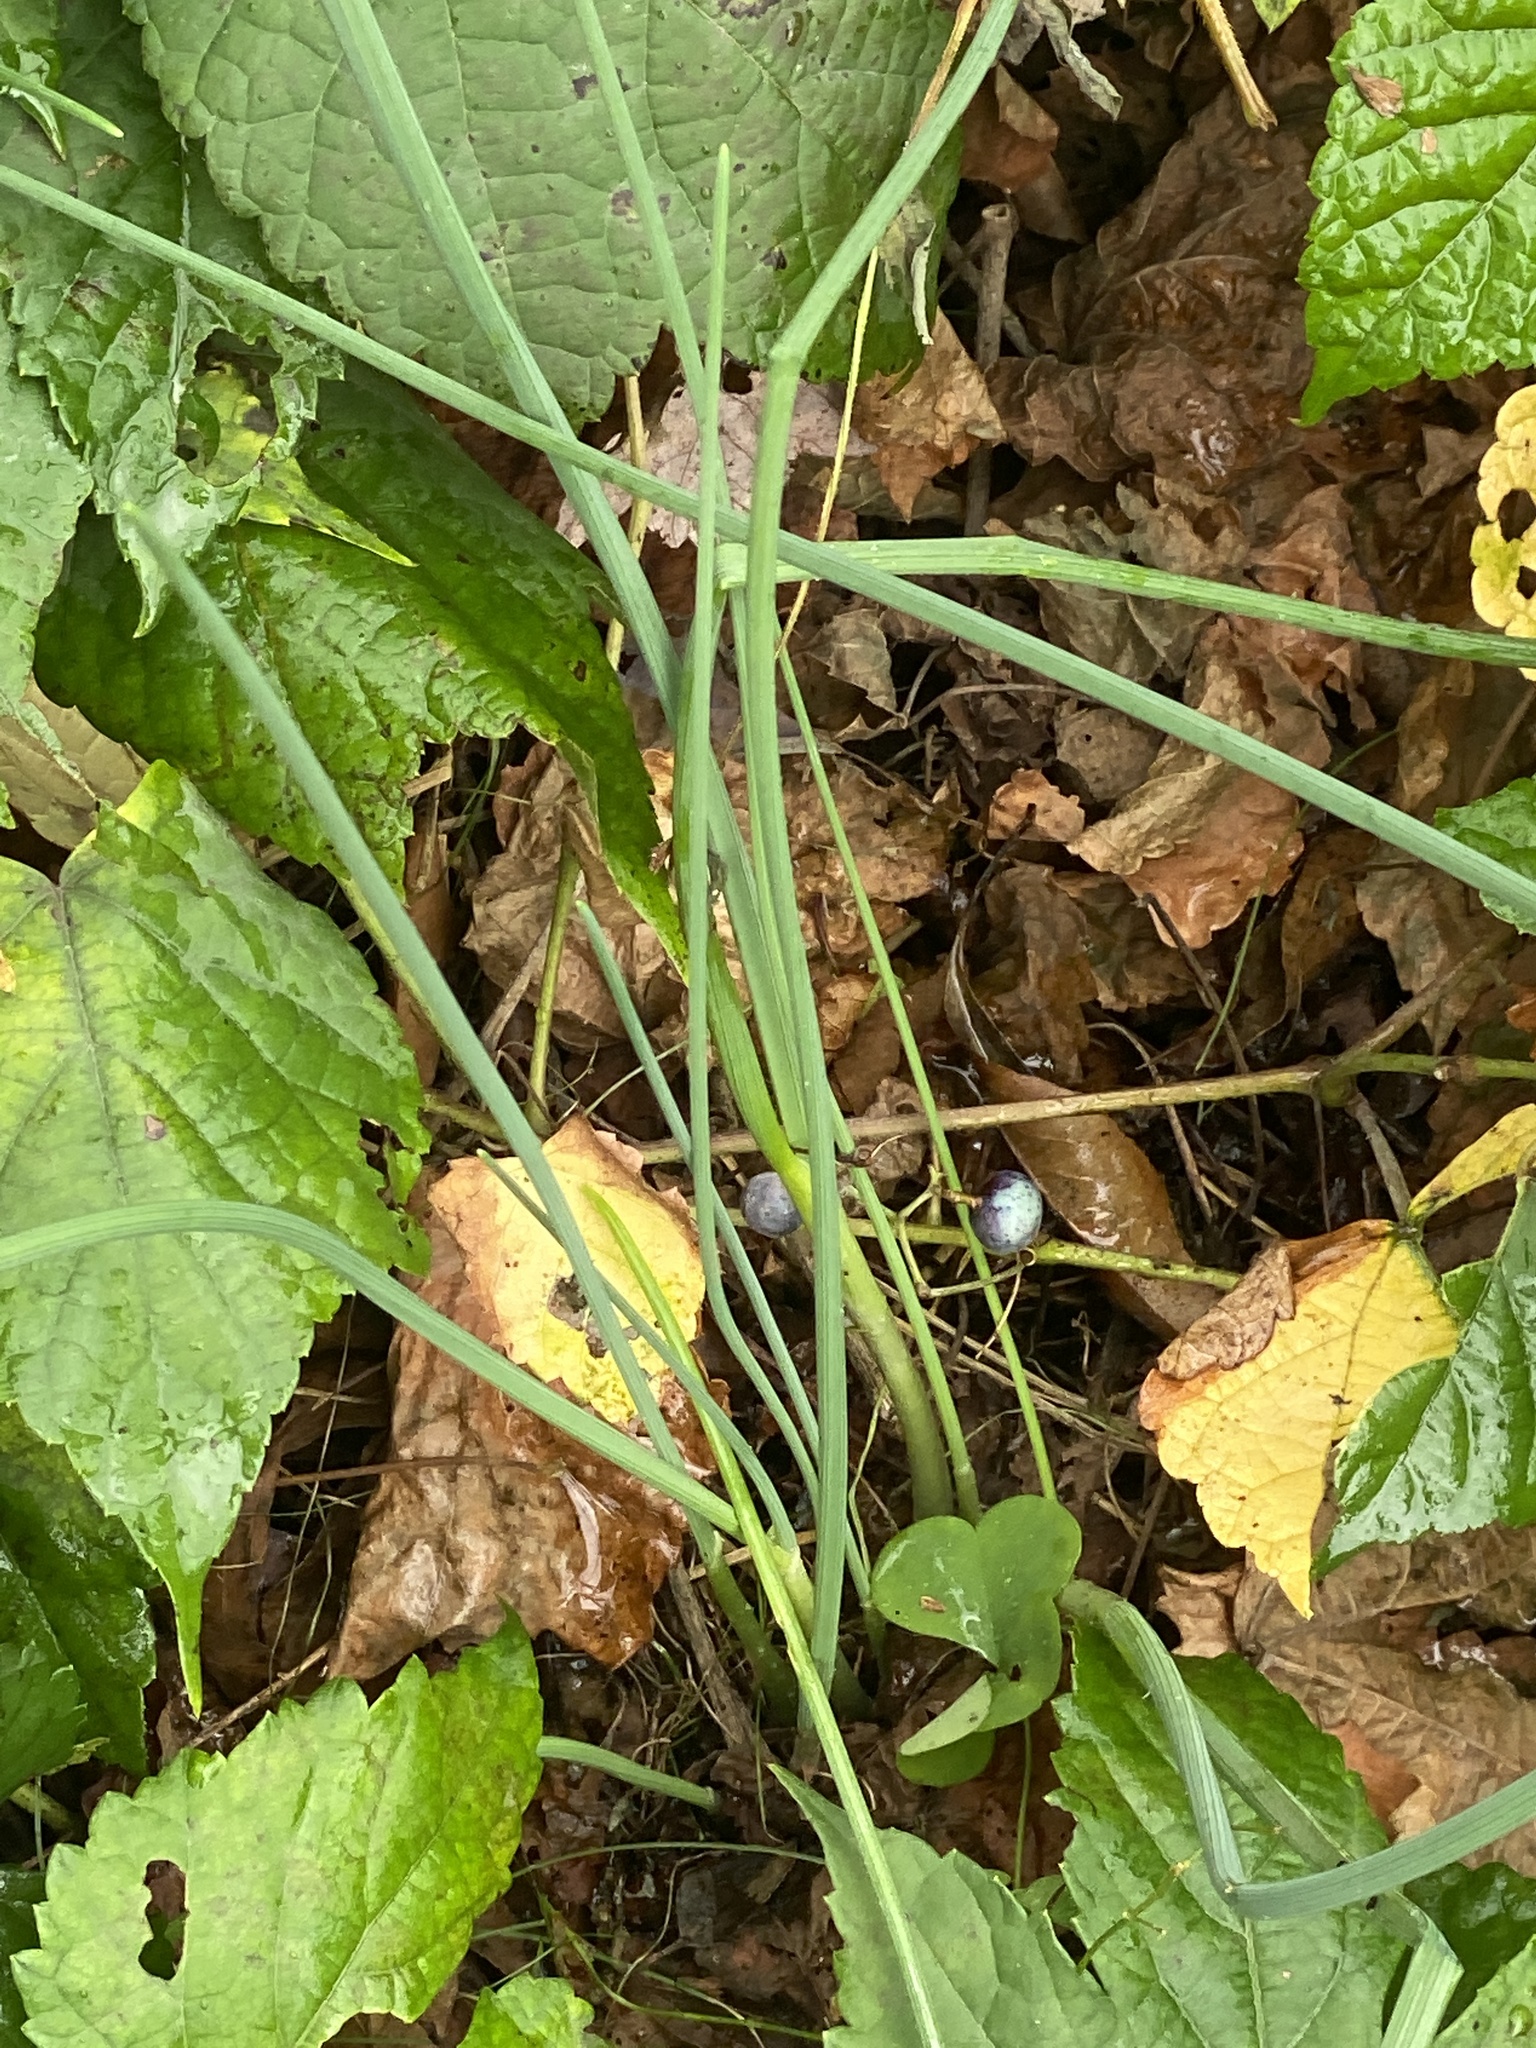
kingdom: Plantae
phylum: Tracheophyta
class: Liliopsida
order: Asparagales
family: Amaryllidaceae
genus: Allium
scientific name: Allium vineale
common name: Crow garlic
